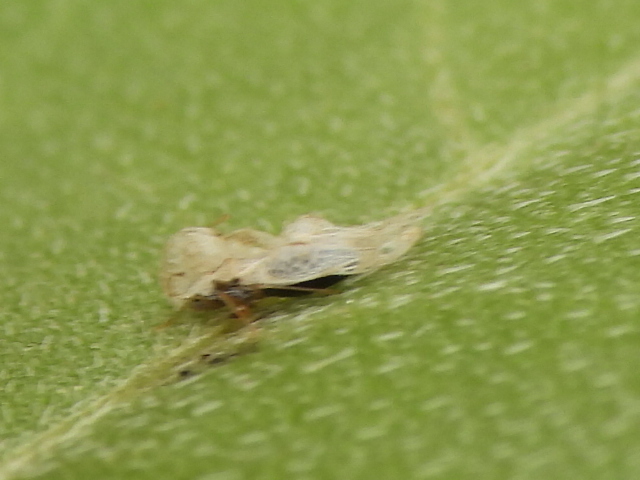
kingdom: Animalia
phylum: Arthropoda
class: Insecta
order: Hemiptera
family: Tingidae
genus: Corythucha
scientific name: Corythucha marmorata
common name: Chrysanthemum lace bug
